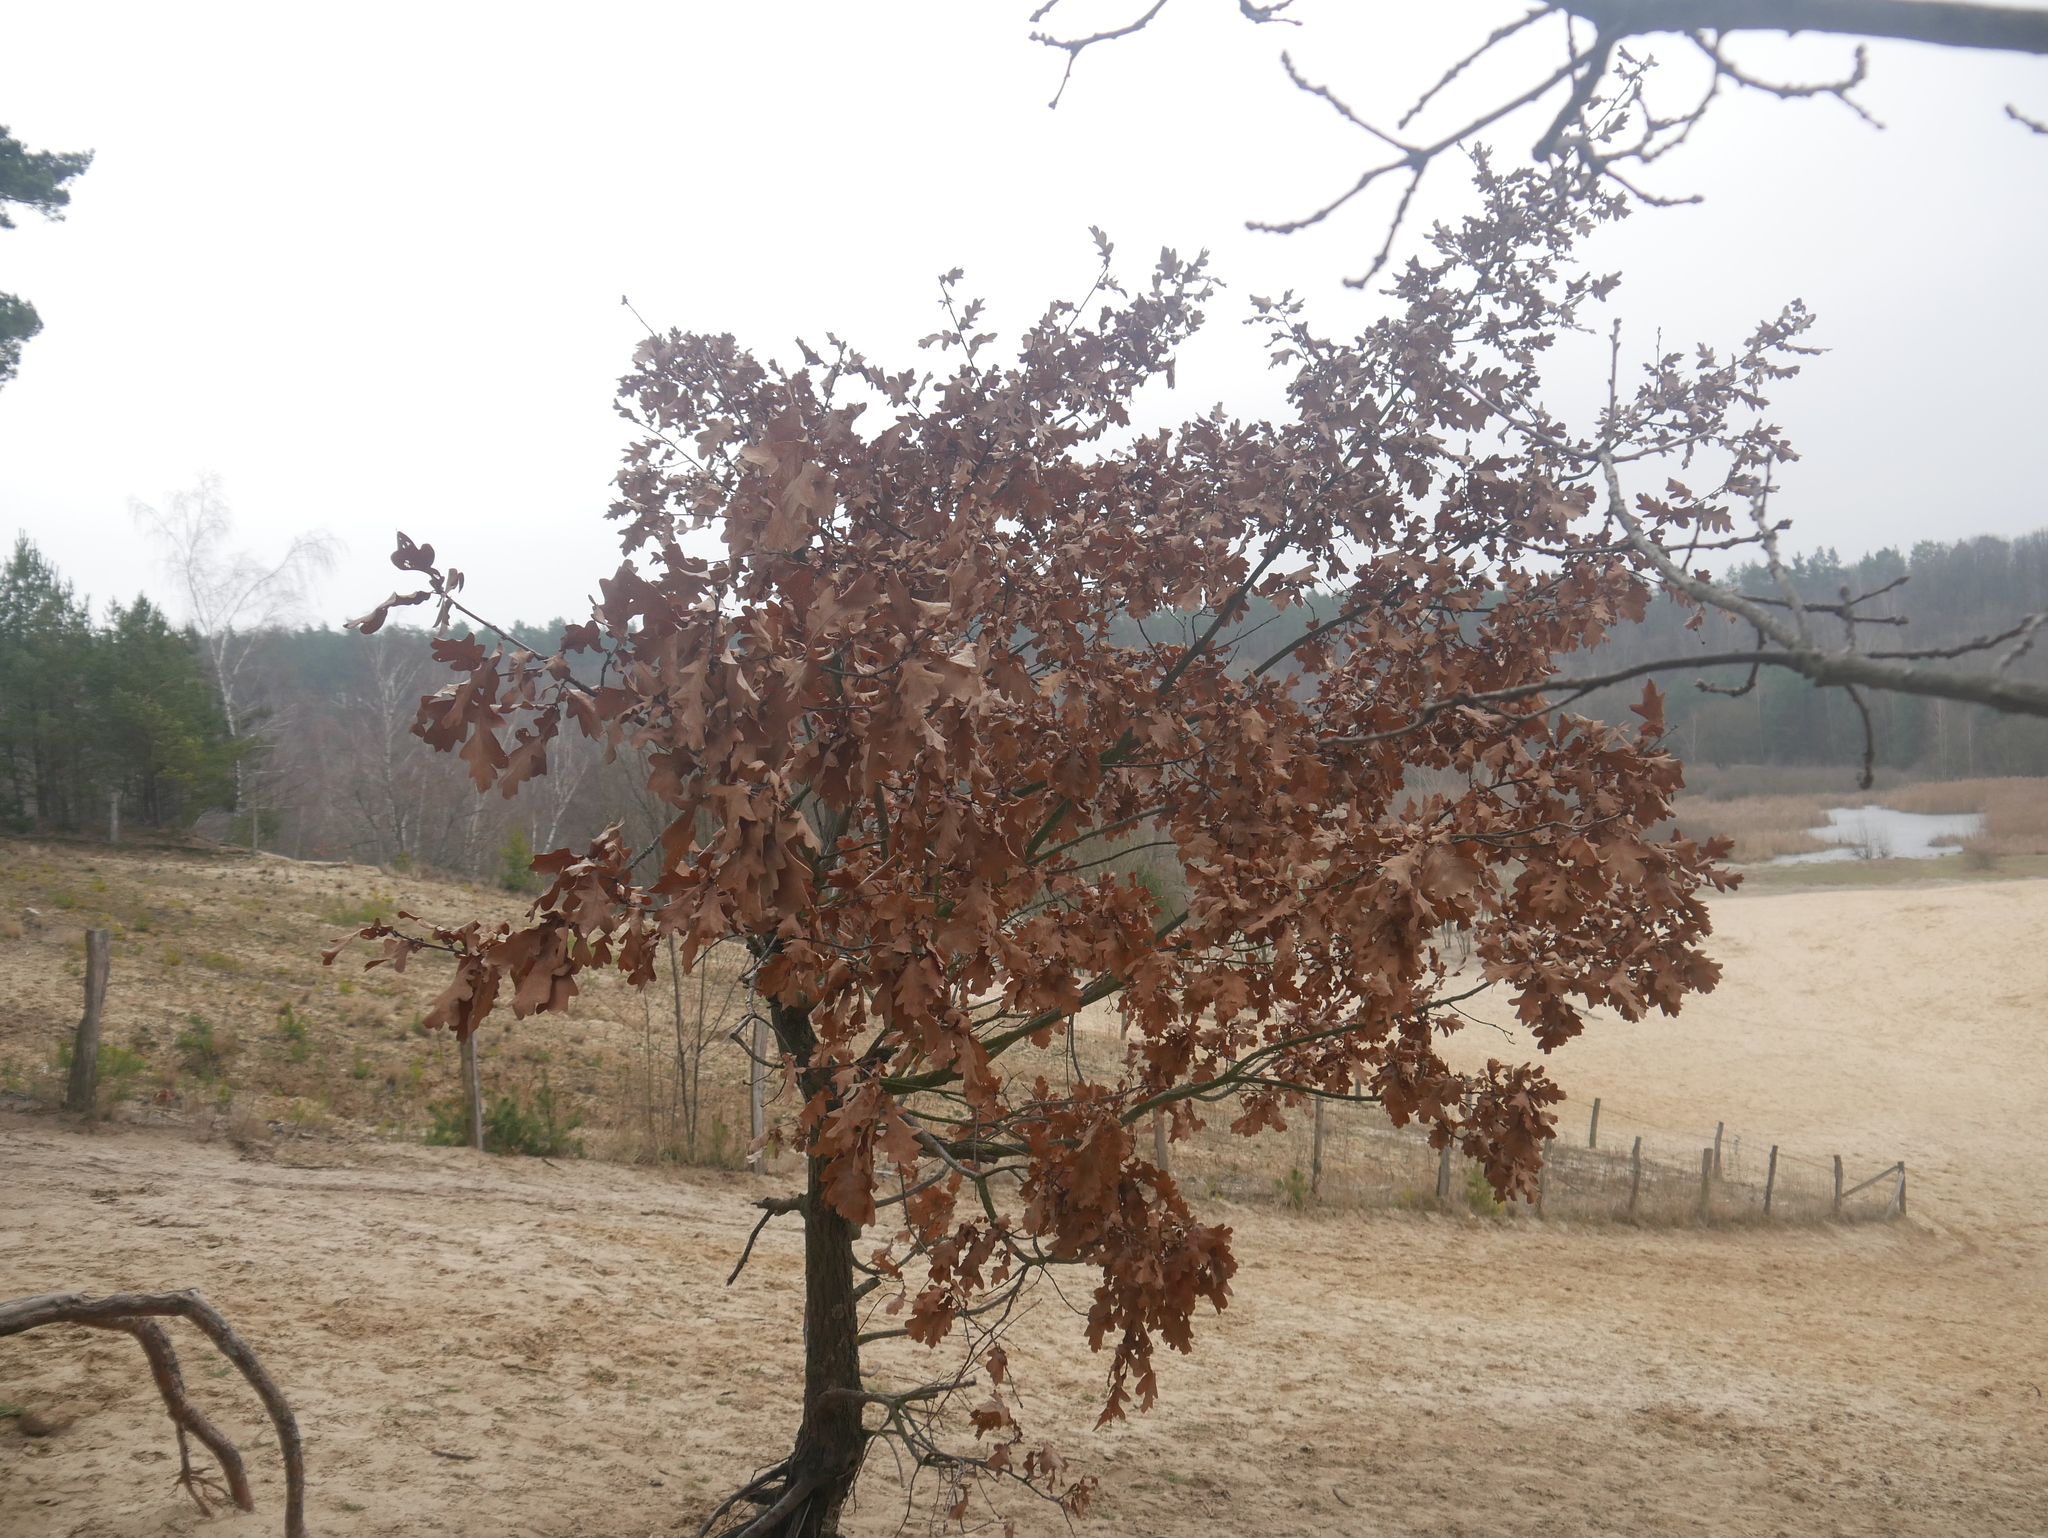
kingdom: Plantae
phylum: Tracheophyta
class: Magnoliopsida
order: Fagales
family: Fagaceae
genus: Quercus
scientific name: Quercus robur
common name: Pedunculate oak
